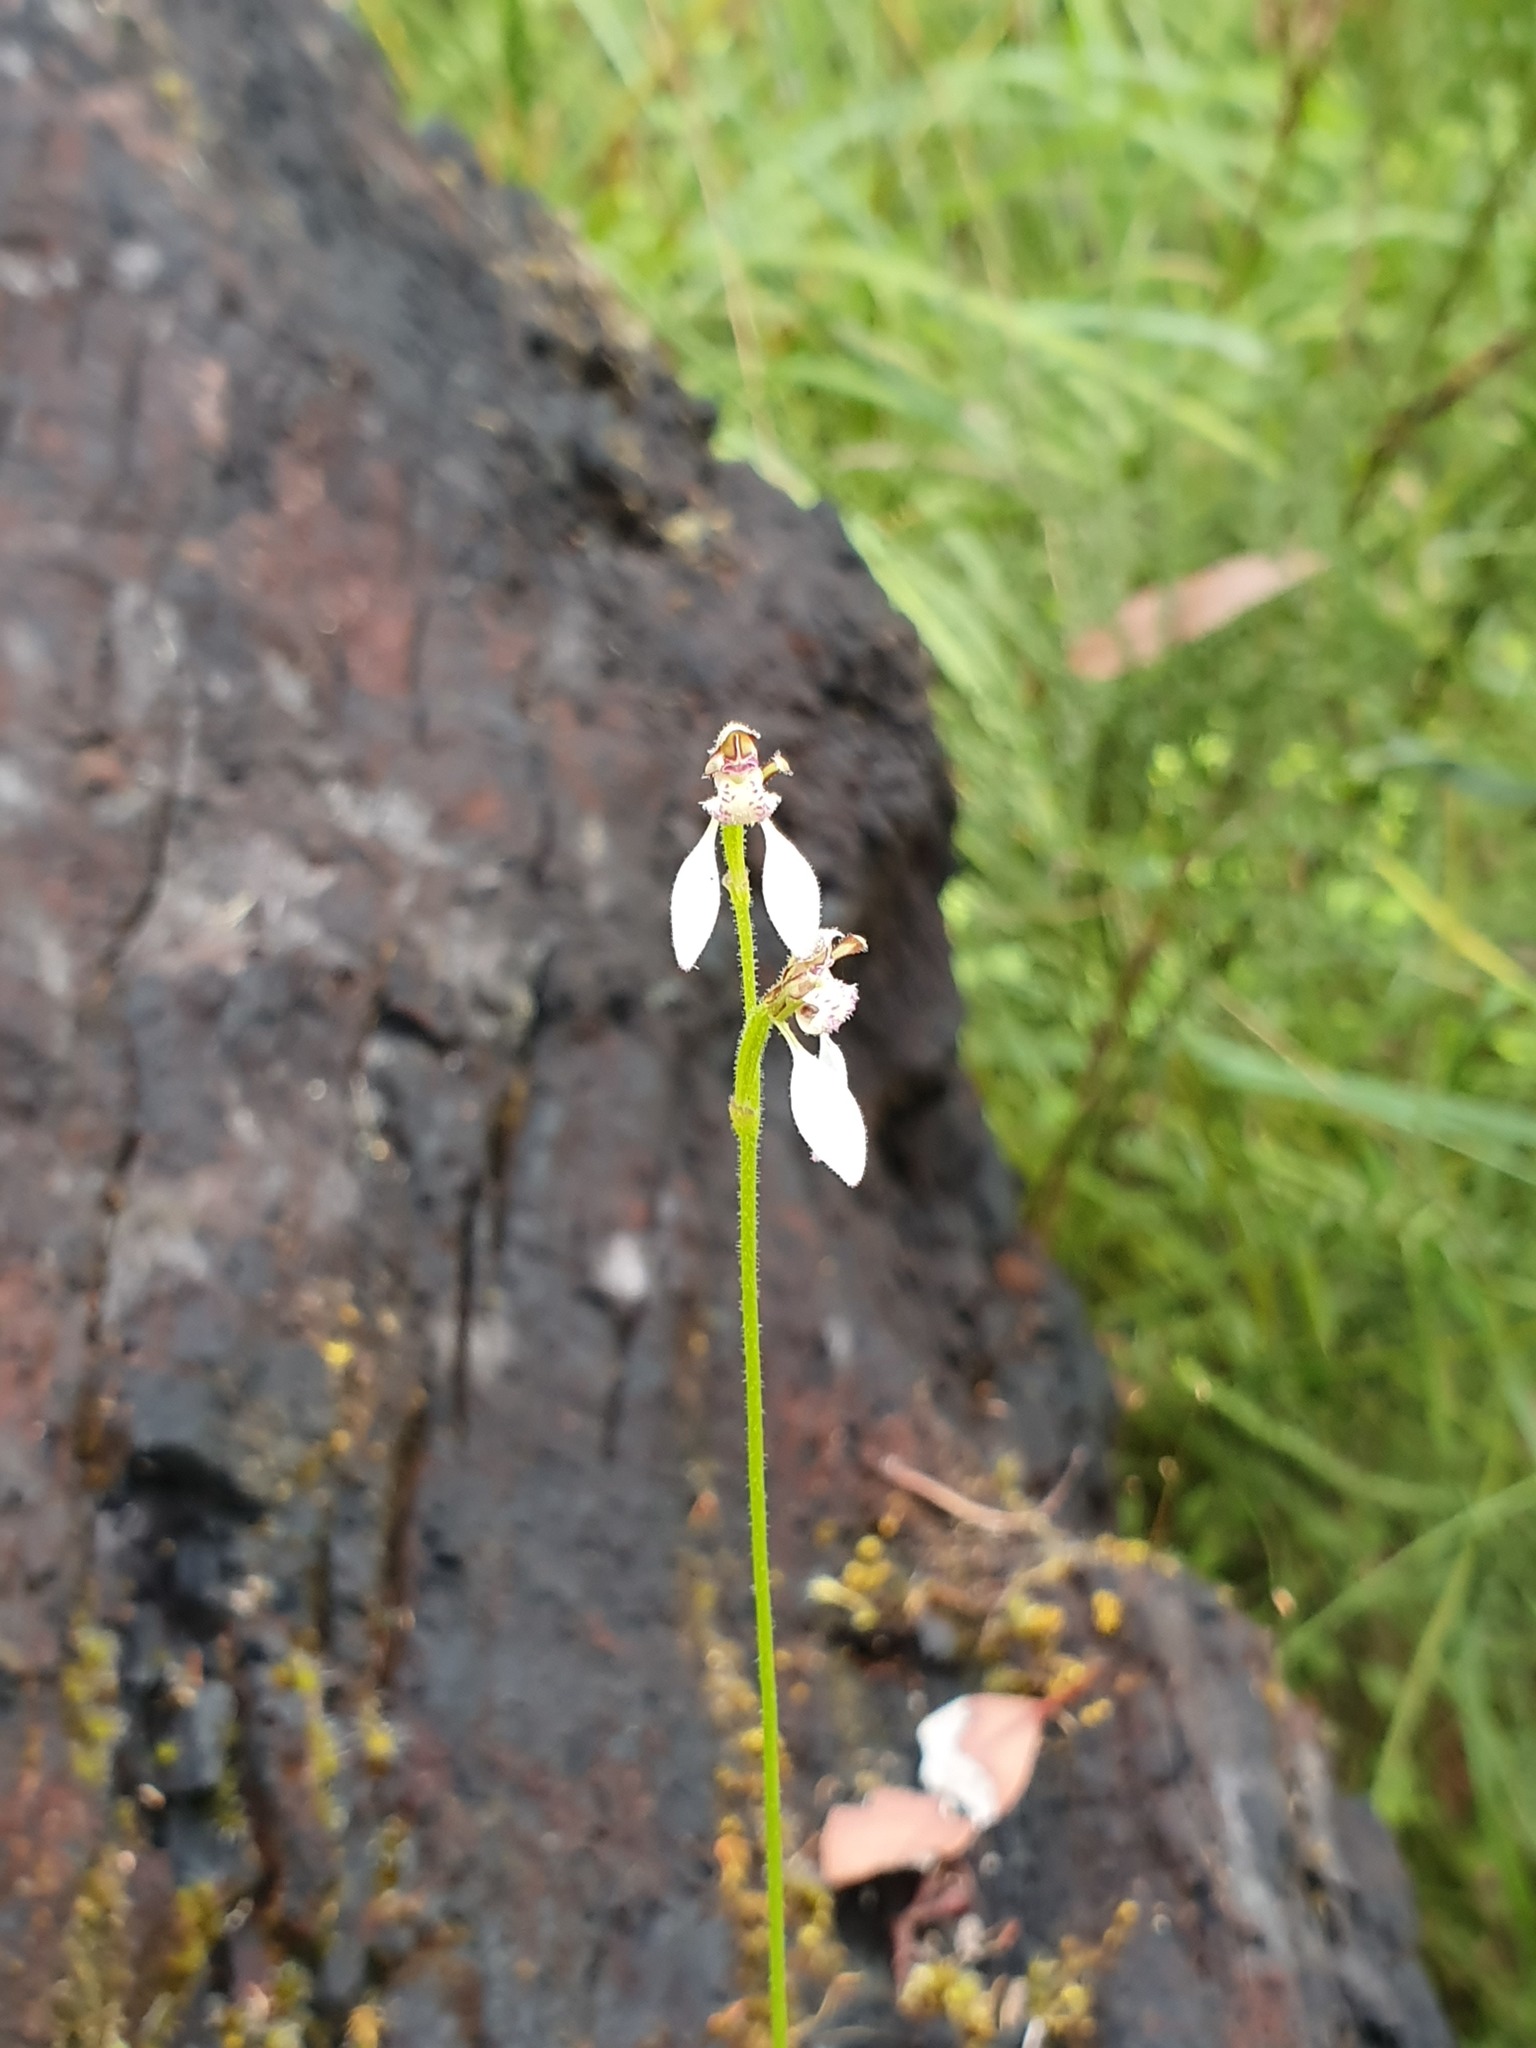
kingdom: Plantae
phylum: Tracheophyta
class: Liliopsida
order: Asparagales
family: Orchidaceae
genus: Eriochilus
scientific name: Eriochilus dilatatus
